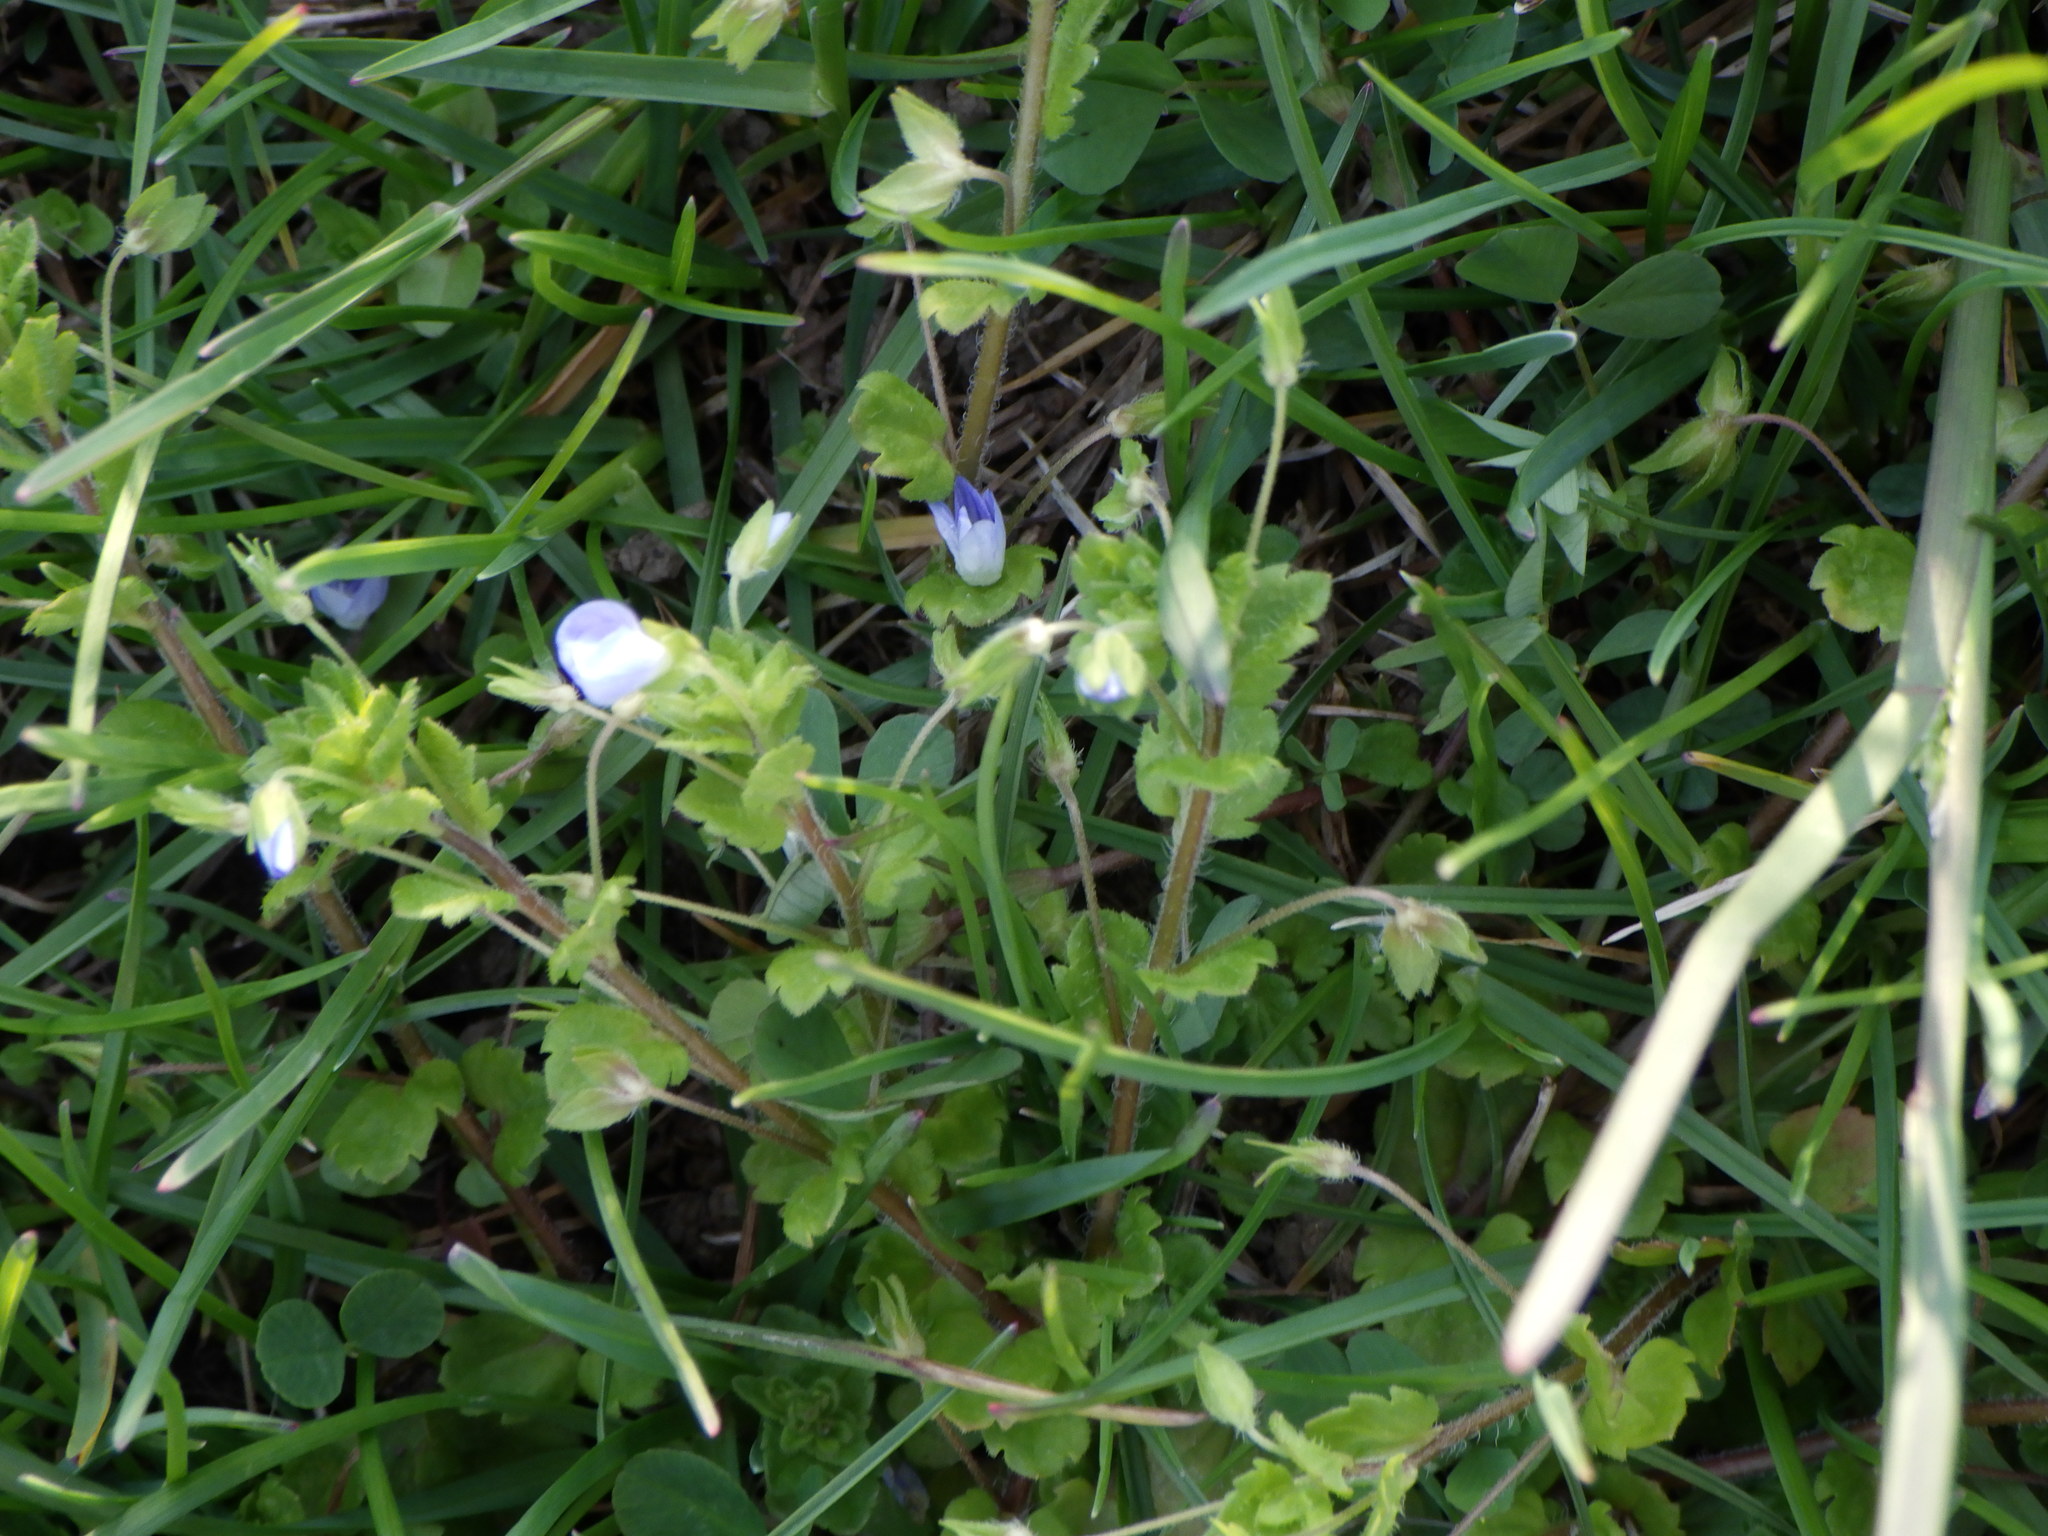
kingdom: Plantae
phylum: Tracheophyta
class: Magnoliopsida
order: Lamiales
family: Plantaginaceae
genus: Veronica
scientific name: Veronica persica
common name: Common field-speedwell
